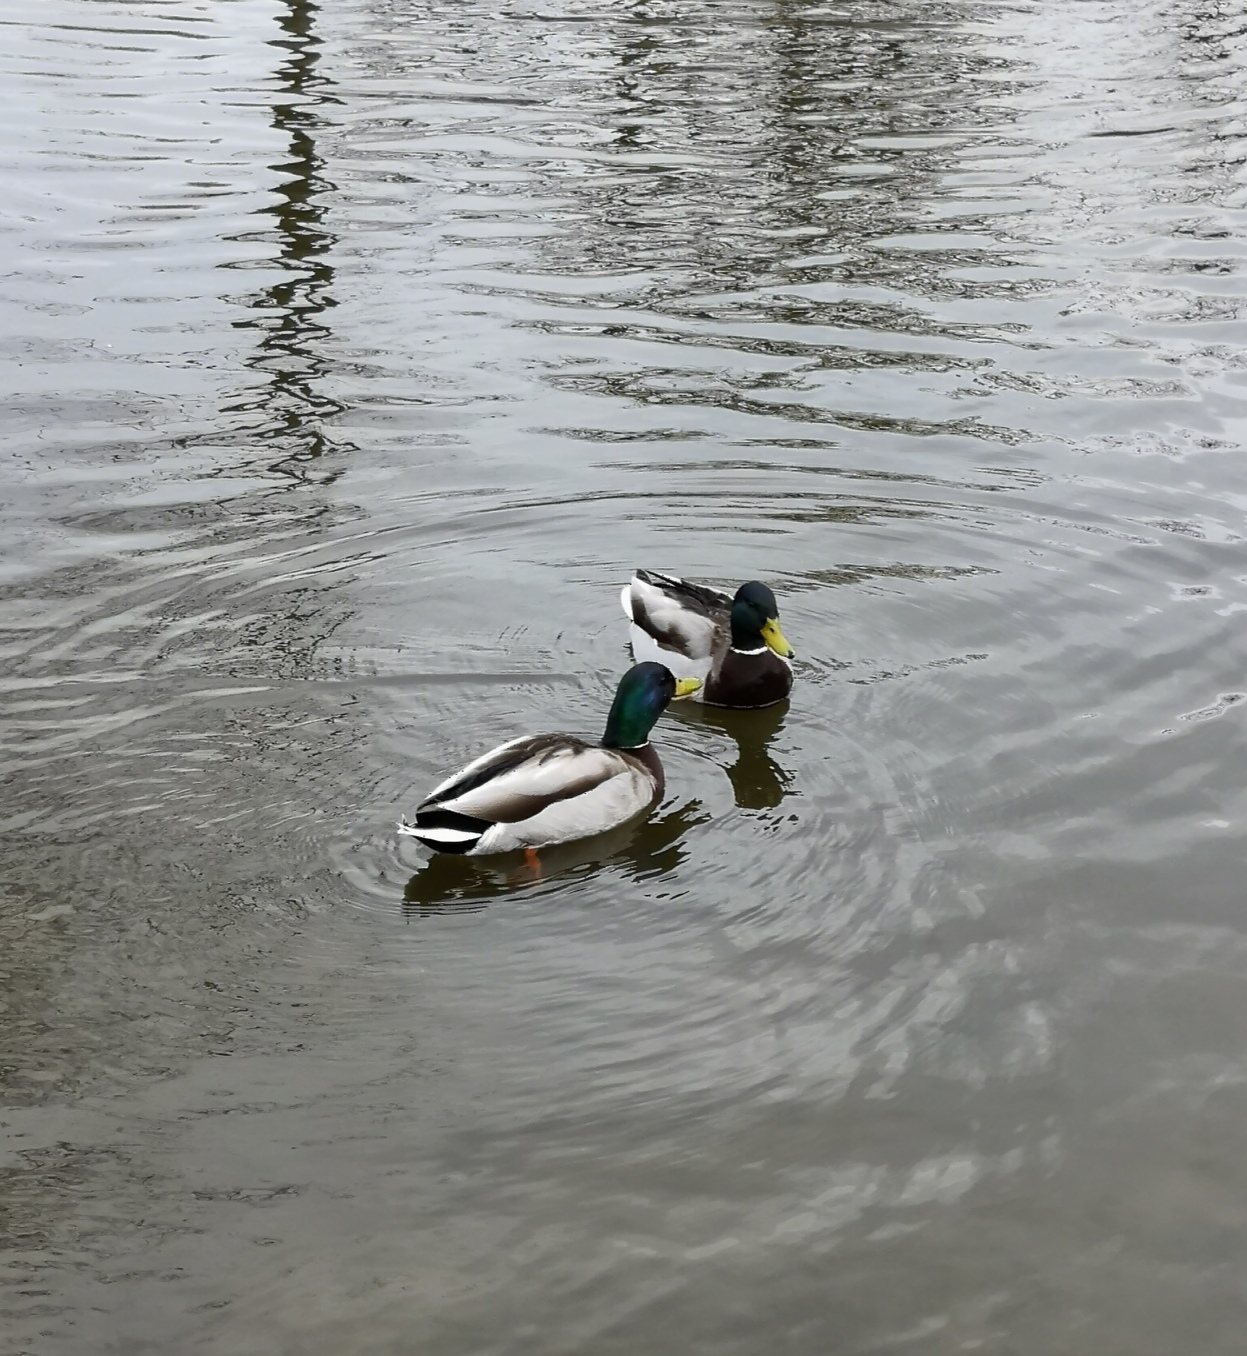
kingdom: Animalia
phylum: Chordata
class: Aves
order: Anseriformes
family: Anatidae
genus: Anas
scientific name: Anas platyrhynchos
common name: Mallard
